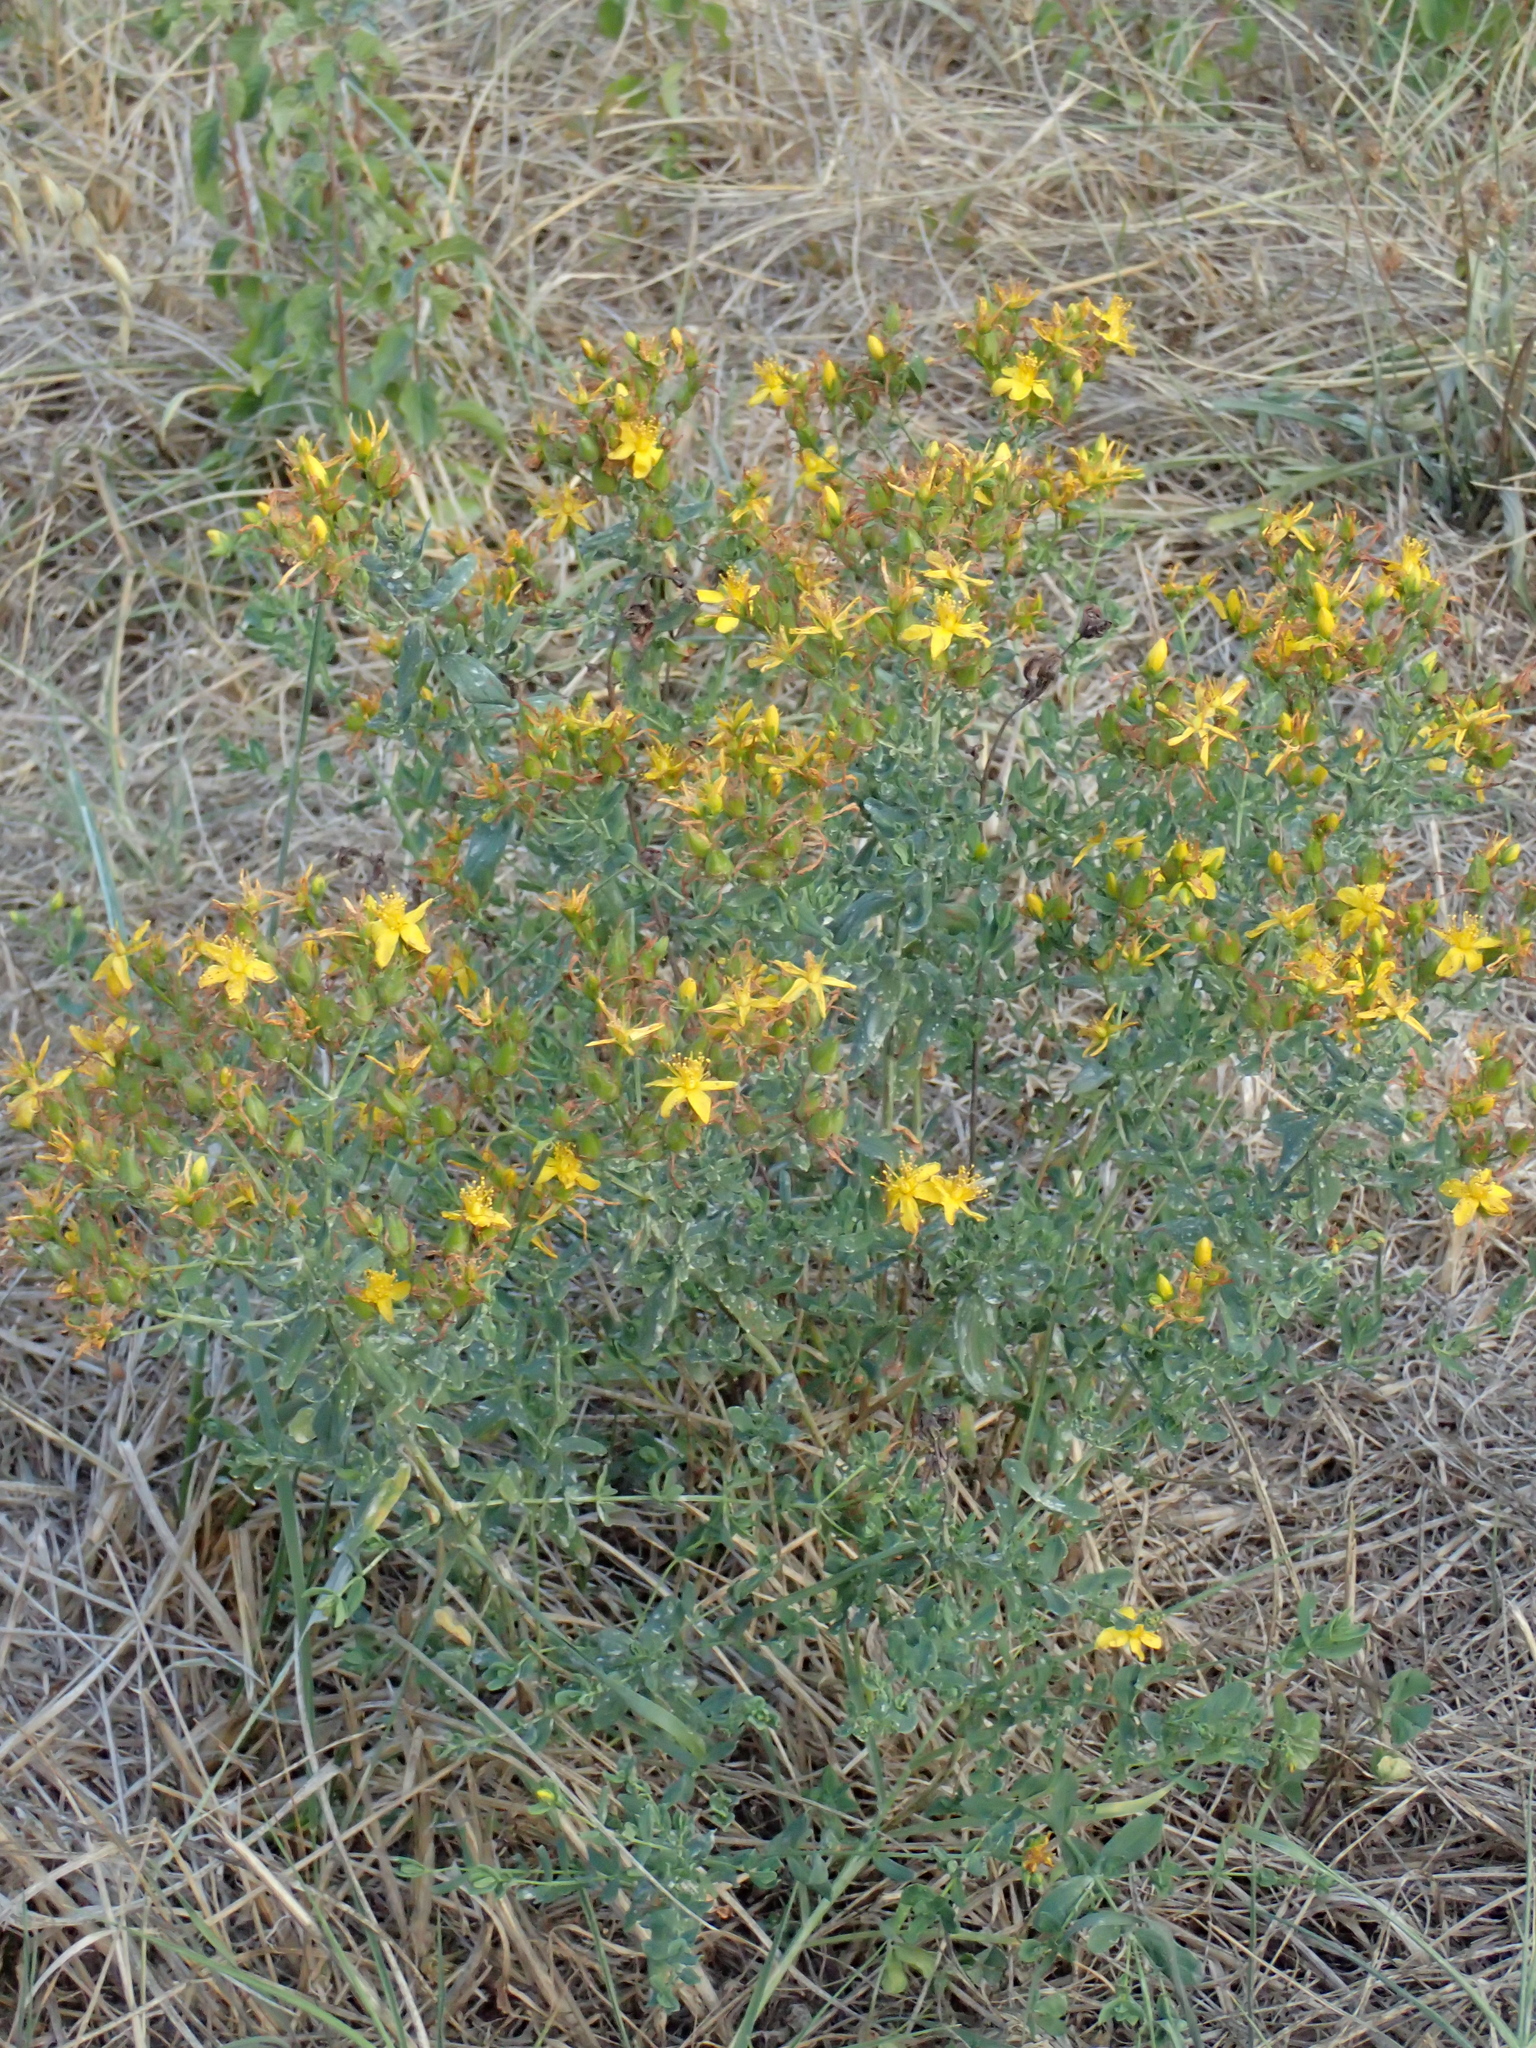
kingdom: Plantae
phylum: Tracheophyta
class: Magnoliopsida
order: Malpighiales
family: Hypericaceae
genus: Hypericum
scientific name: Hypericum perforatum
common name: Common st. johnswort
